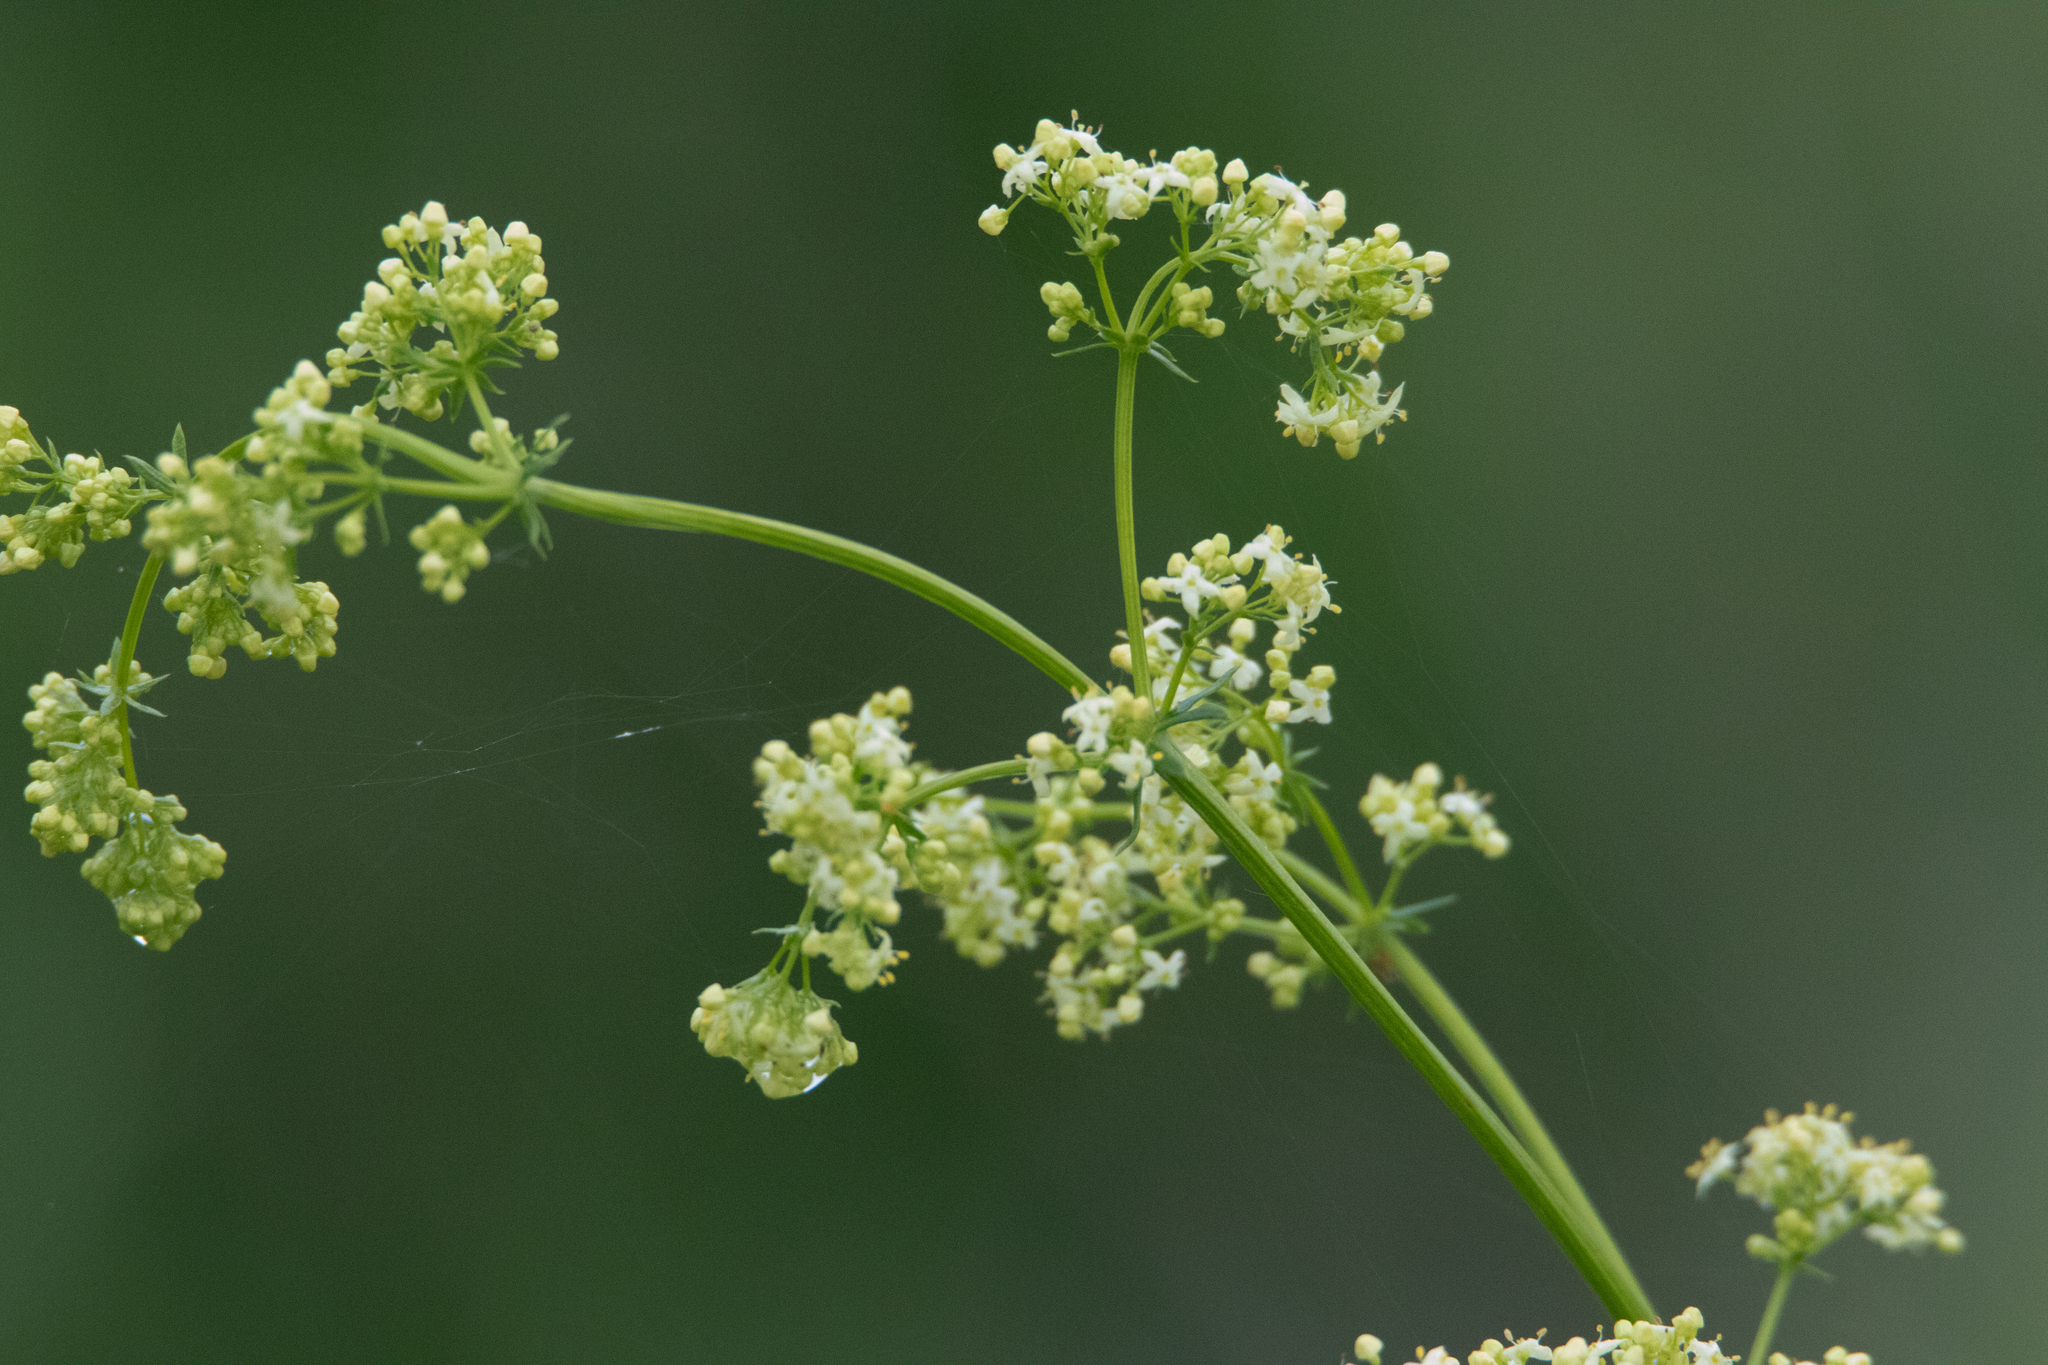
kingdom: Plantae
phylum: Tracheophyta
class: Magnoliopsida
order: Gentianales
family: Rubiaceae
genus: Galium
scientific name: Galium mollugo
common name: Hedge bedstraw
